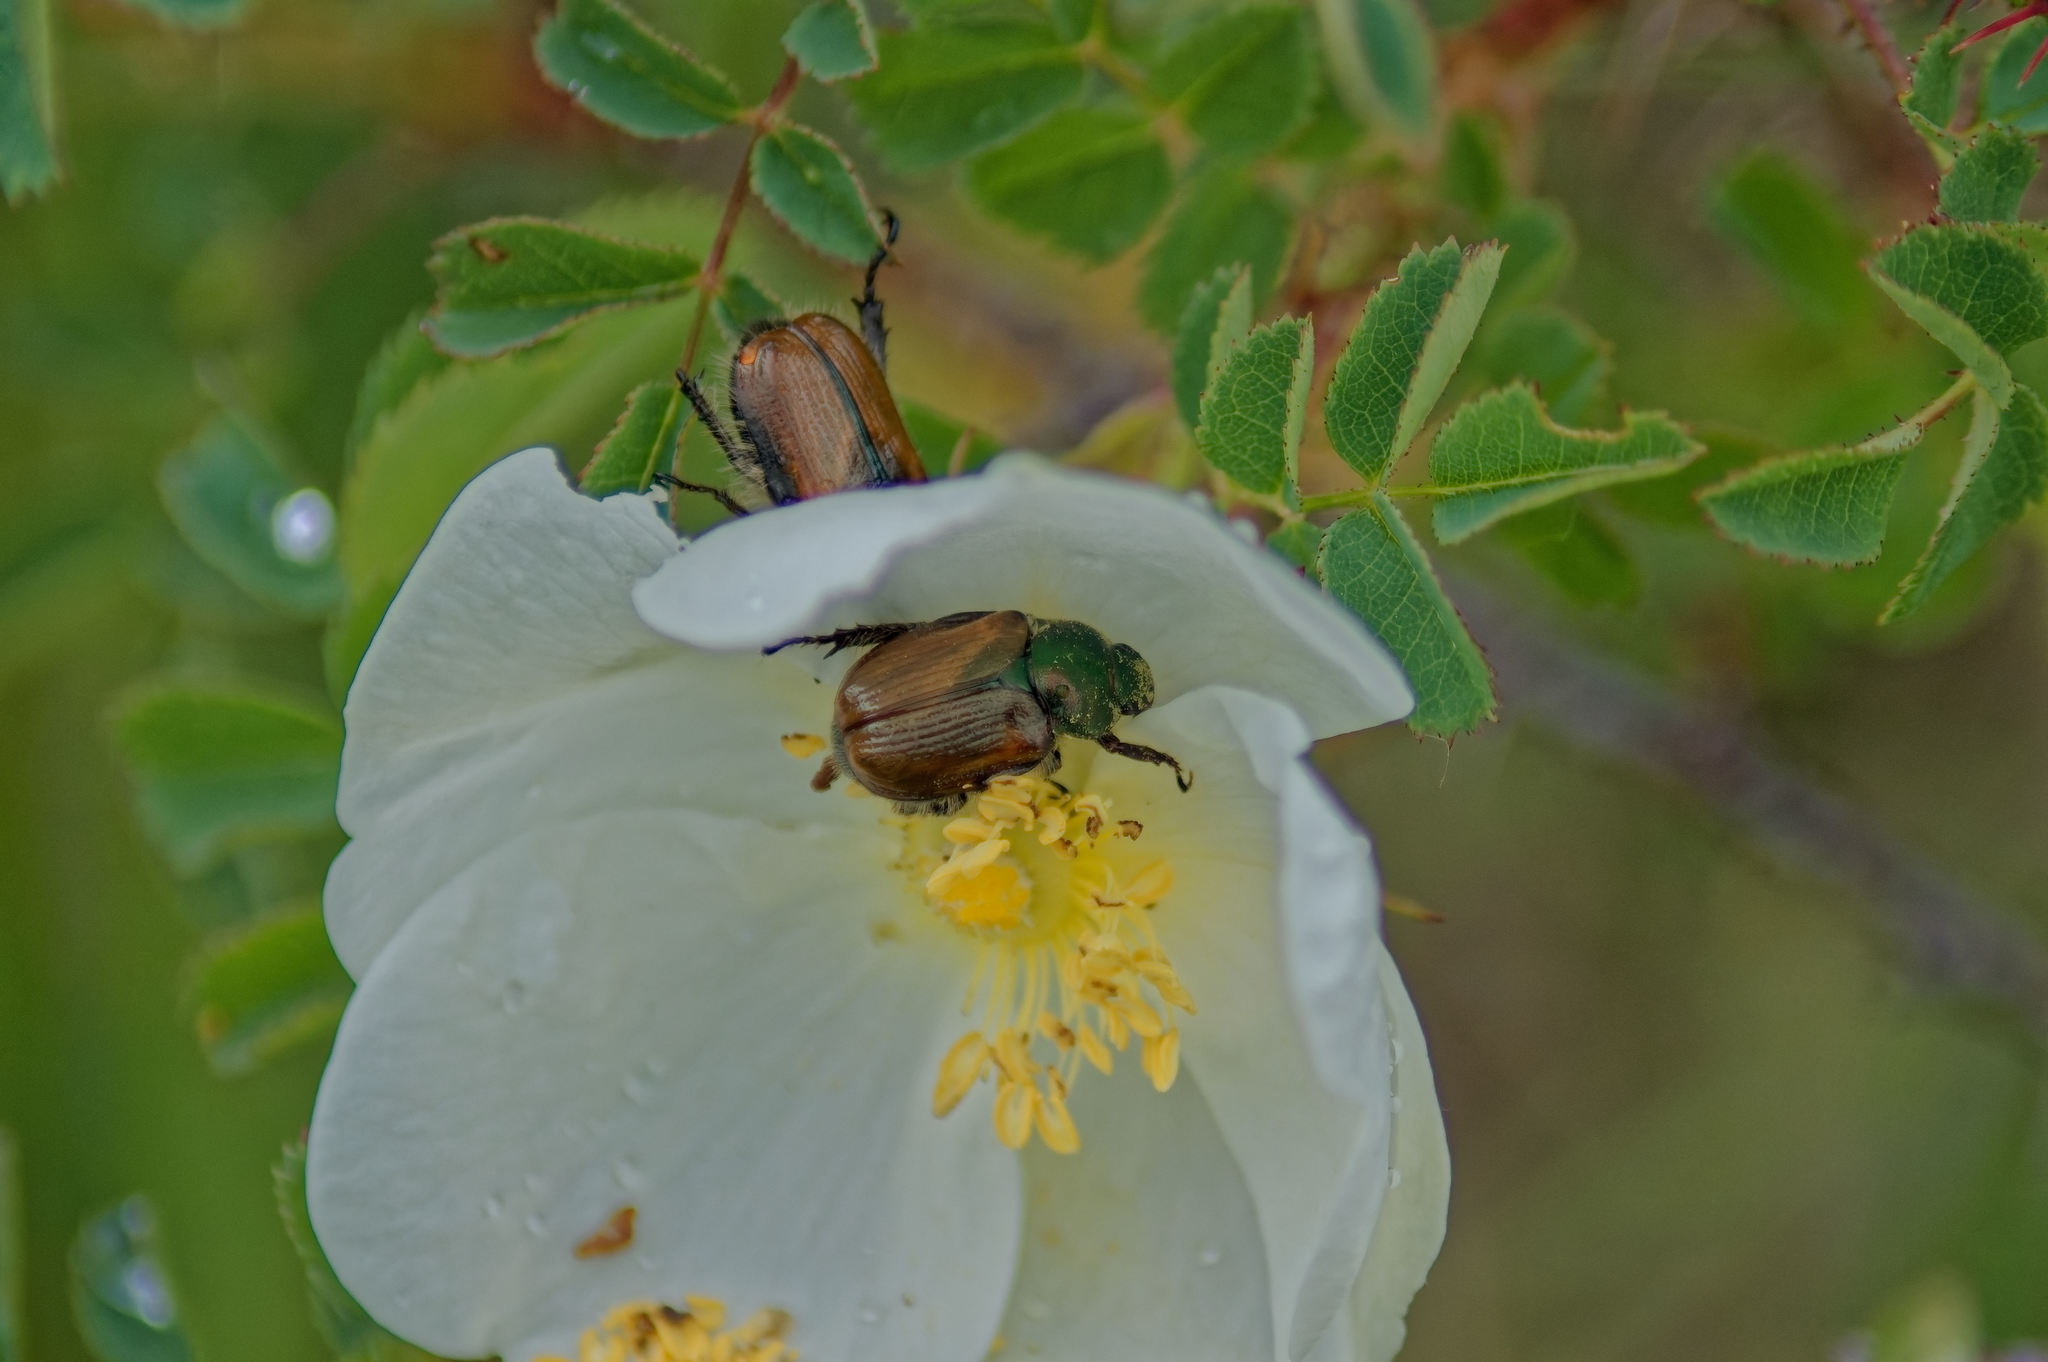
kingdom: Animalia
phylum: Arthropoda
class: Insecta
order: Coleoptera
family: Scarabaeidae
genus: Phyllopertha
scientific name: Phyllopertha horticola
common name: Garden chafer
